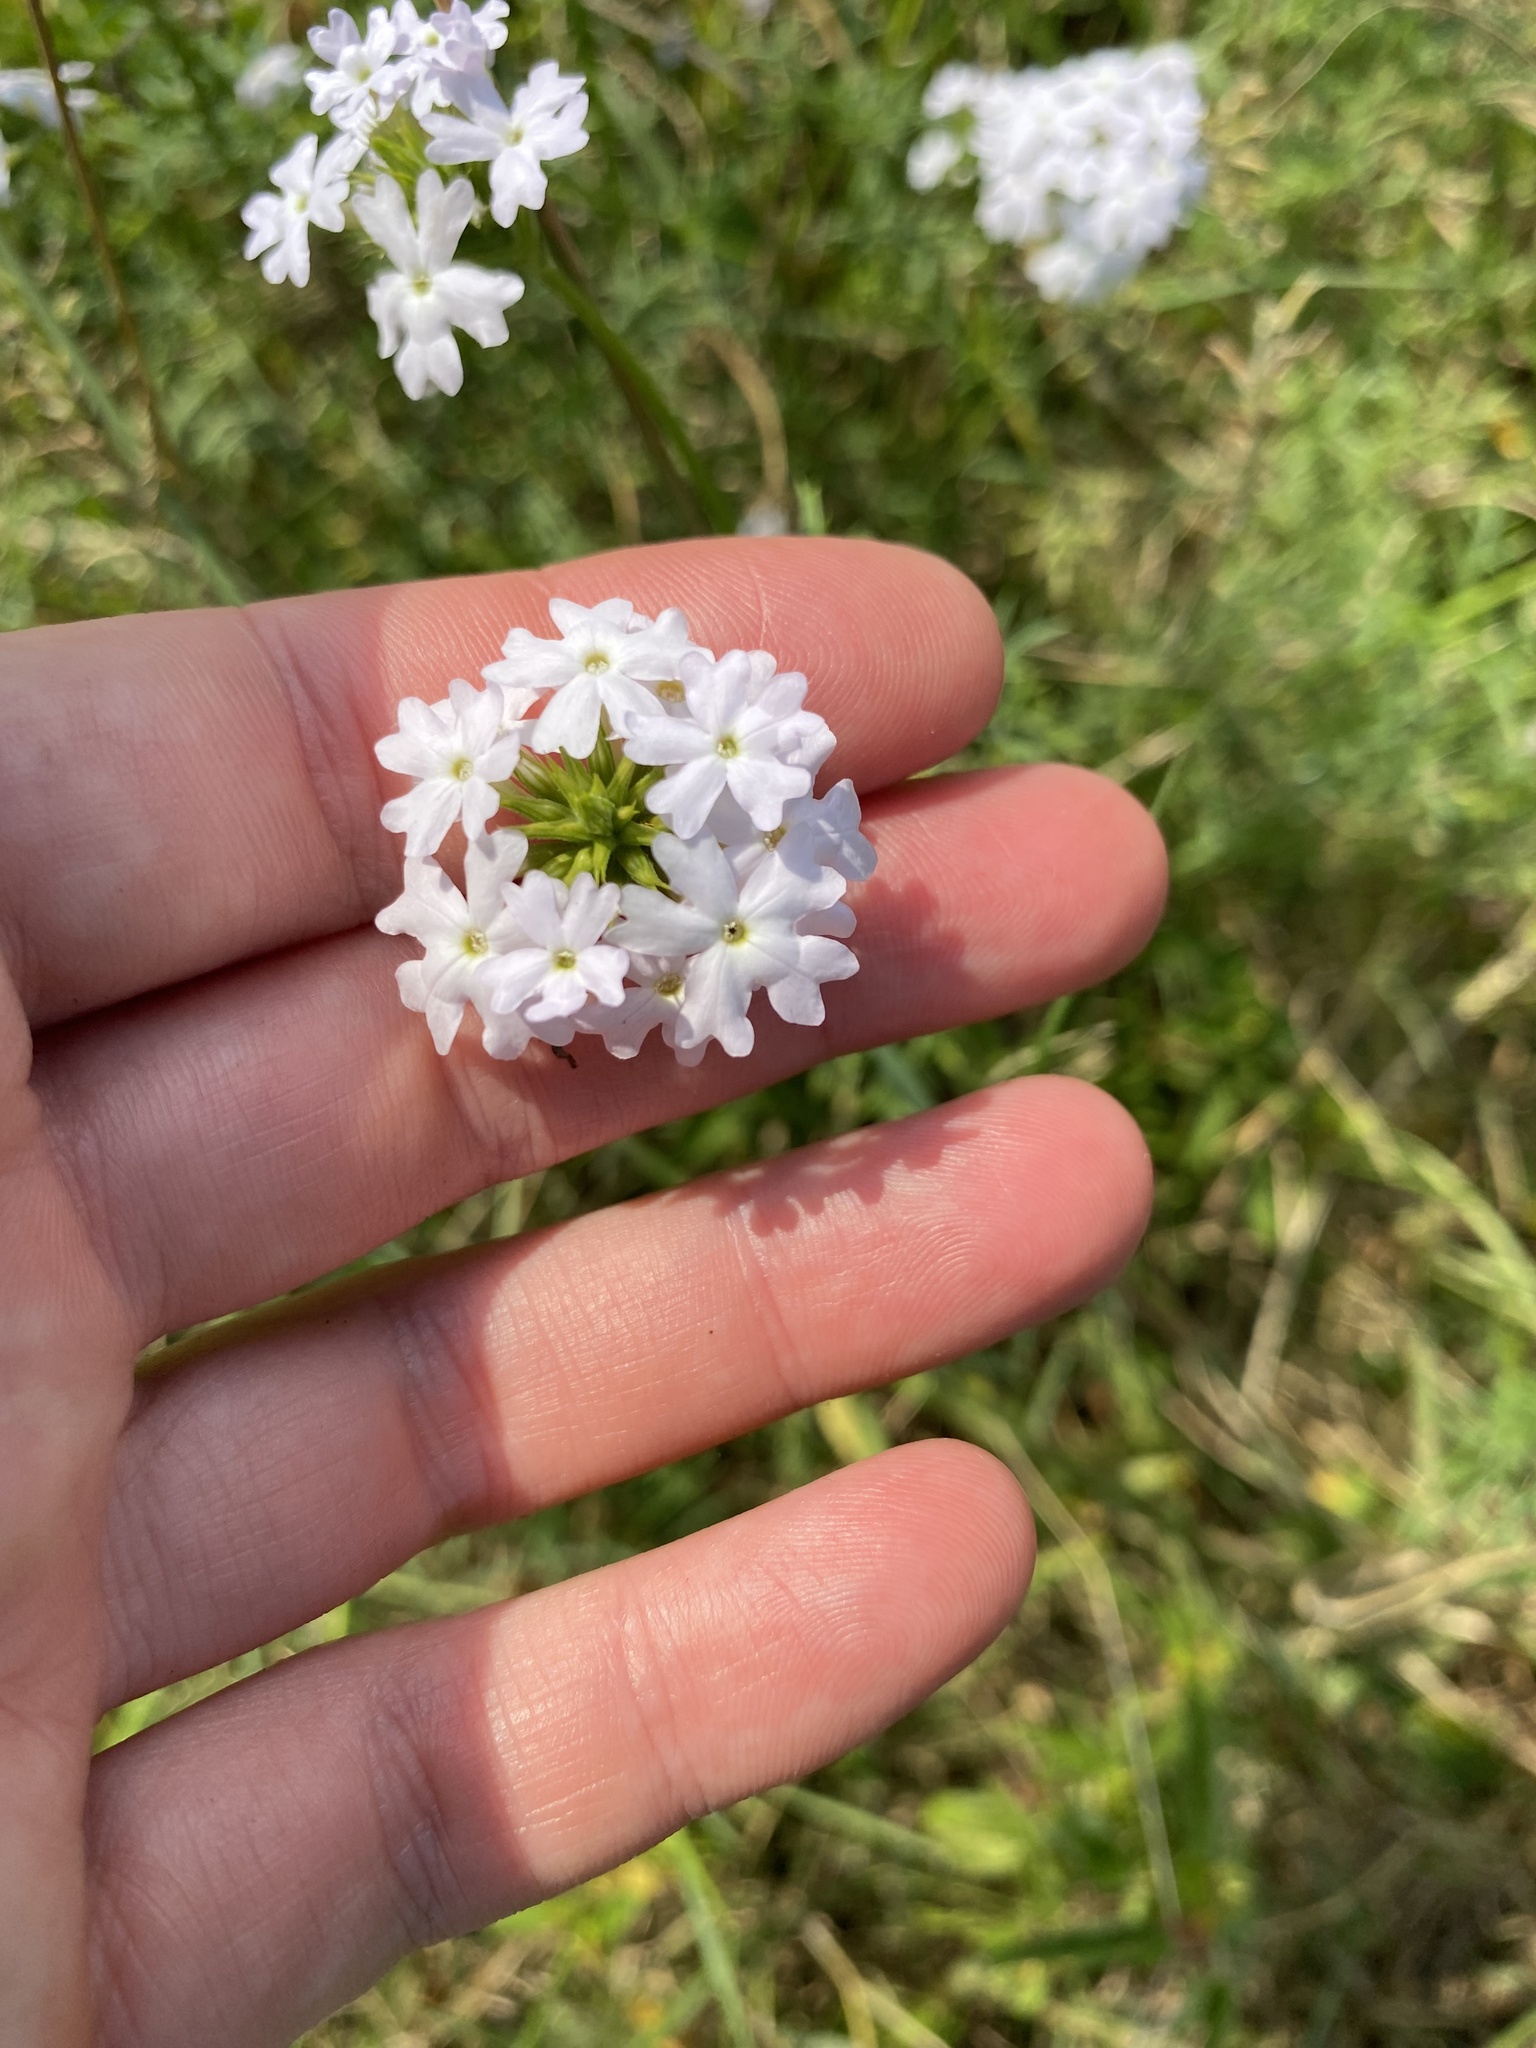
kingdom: Plantae
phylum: Tracheophyta
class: Magnoliopsida
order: Lamiales
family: Verbenaceae
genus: Verbena
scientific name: Verbena aristigera
